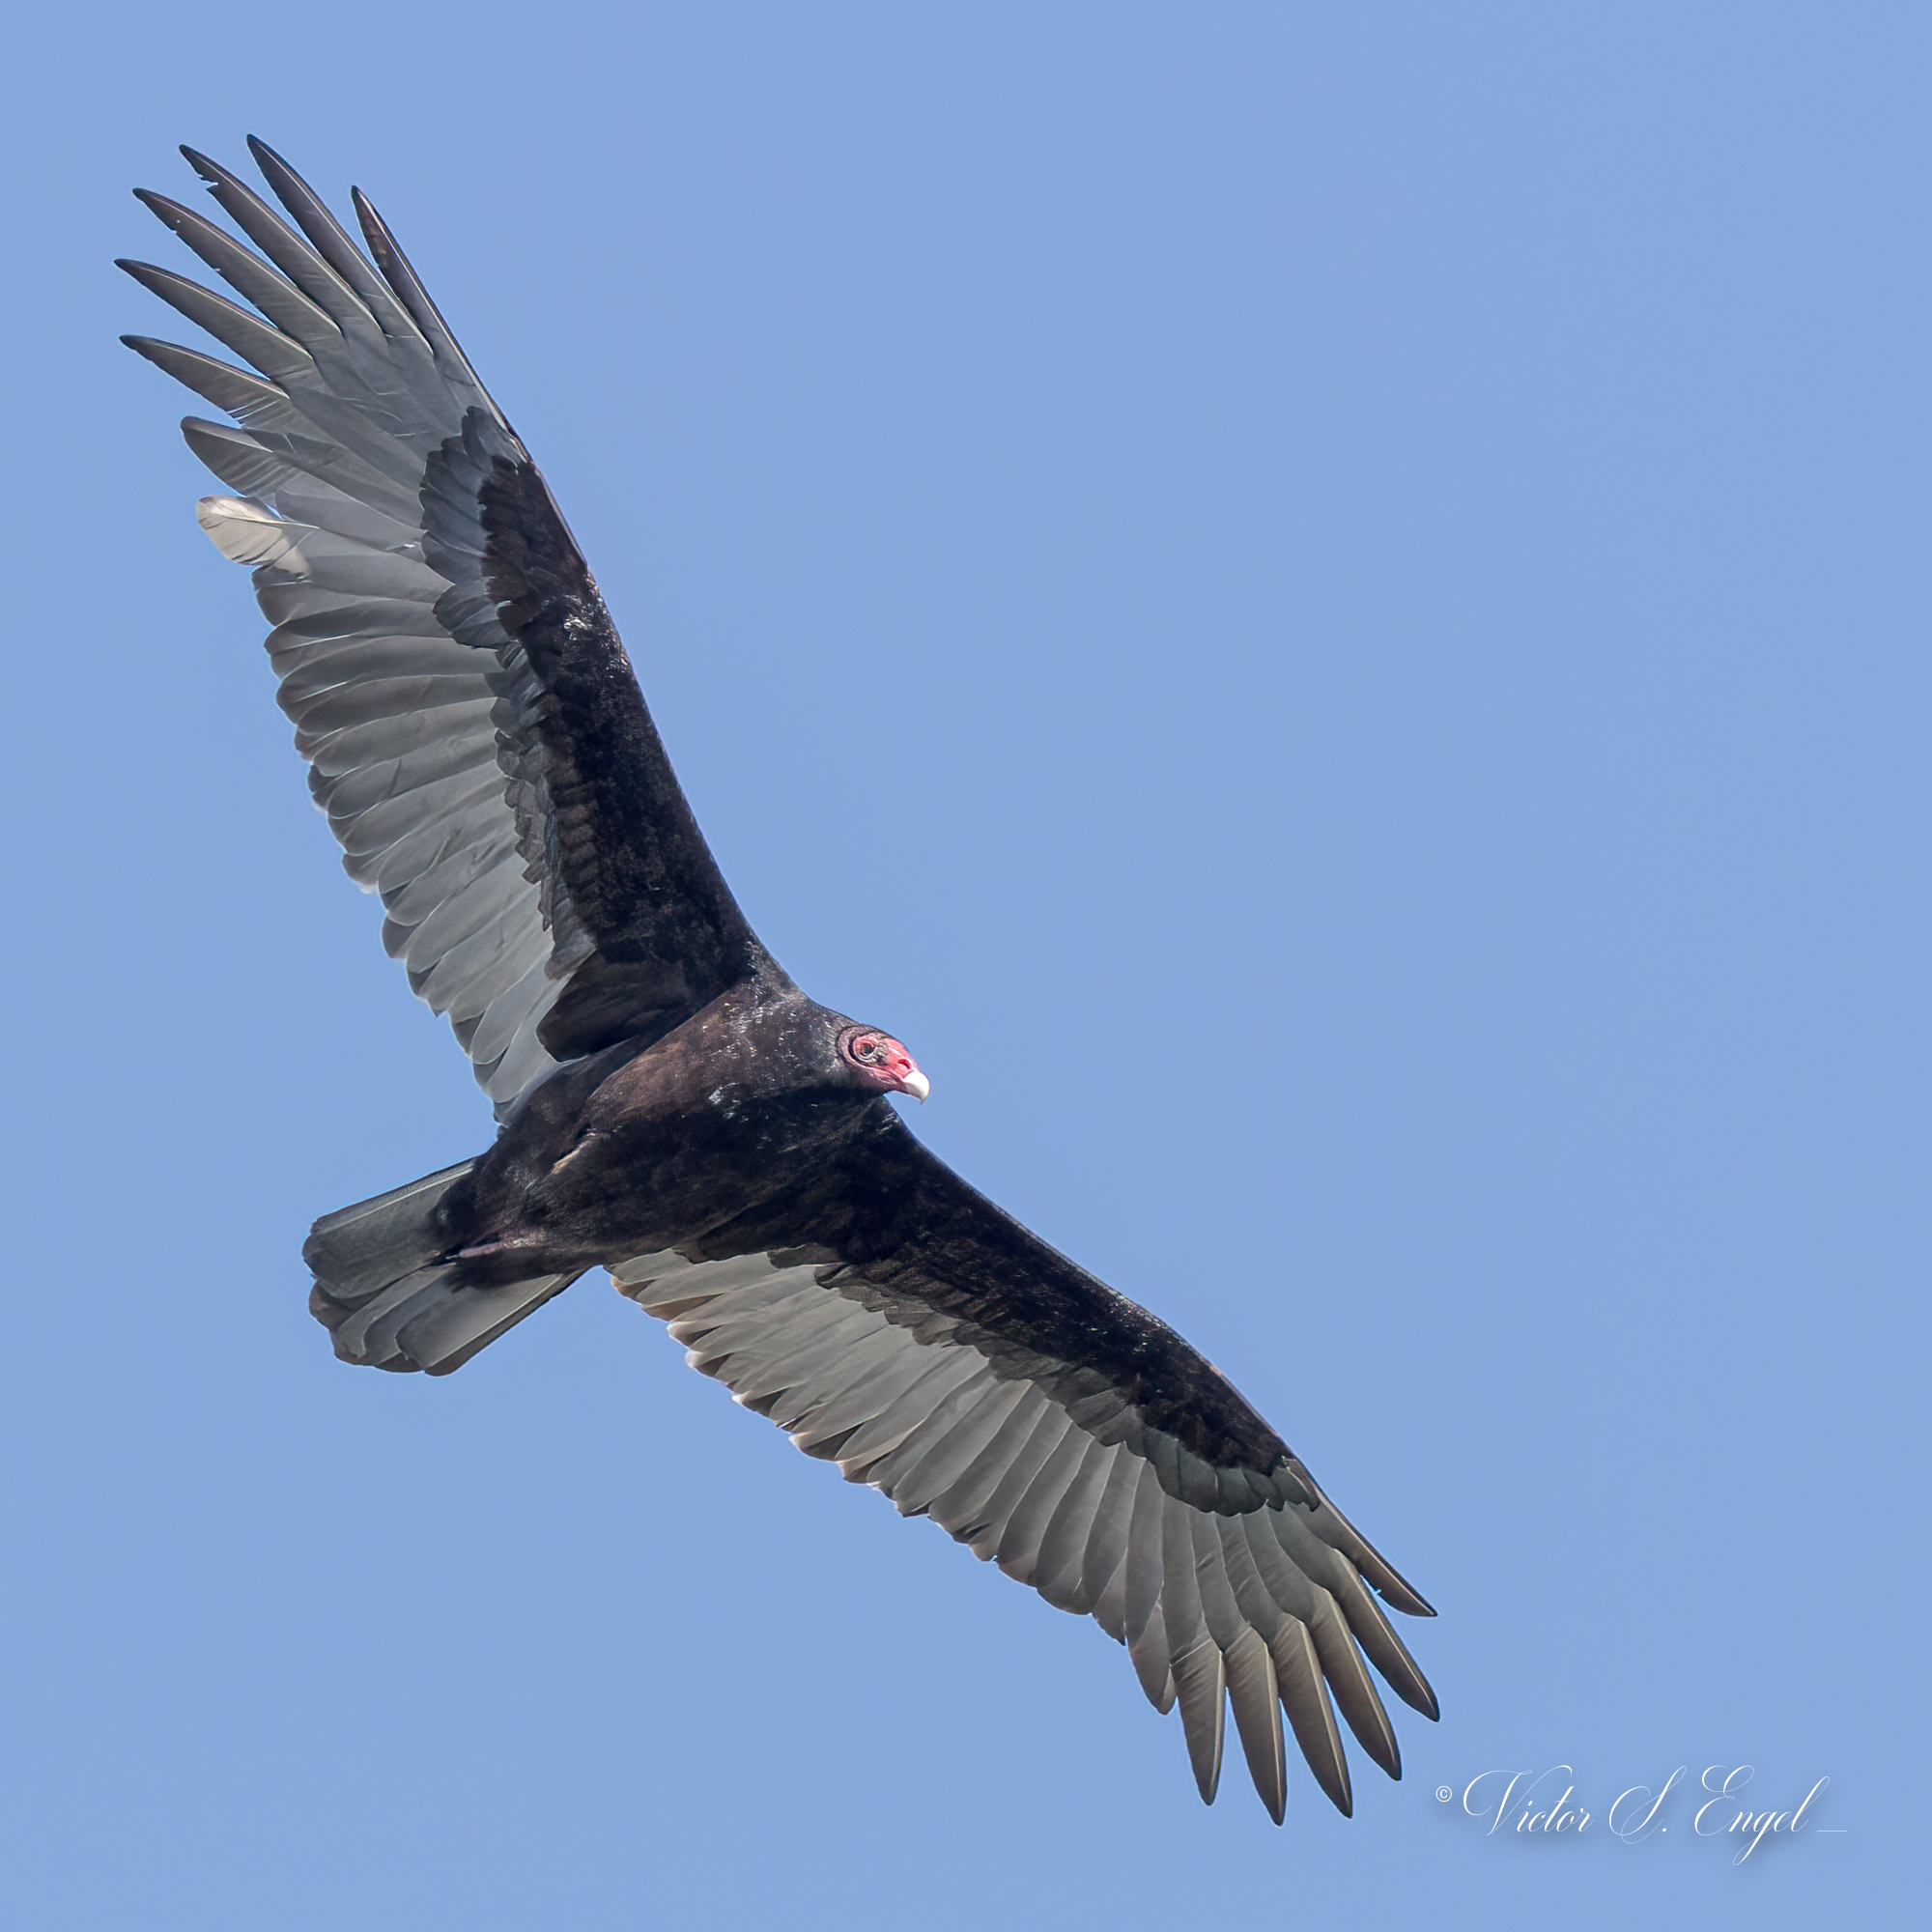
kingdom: Animalia
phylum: Chordata
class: Aves
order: Accipitriformes
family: Cathartidae
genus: Cathartes
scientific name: Cathartes aura
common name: Turkey vulture
